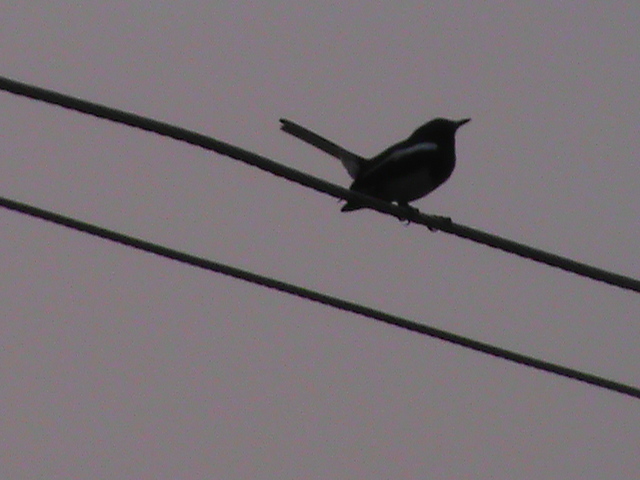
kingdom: Animalia
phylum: Chordata
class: Aves
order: Passeriformes
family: Muscicapidae
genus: Copsychus
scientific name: Copsychus saularis
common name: Oriental magpie-robin
